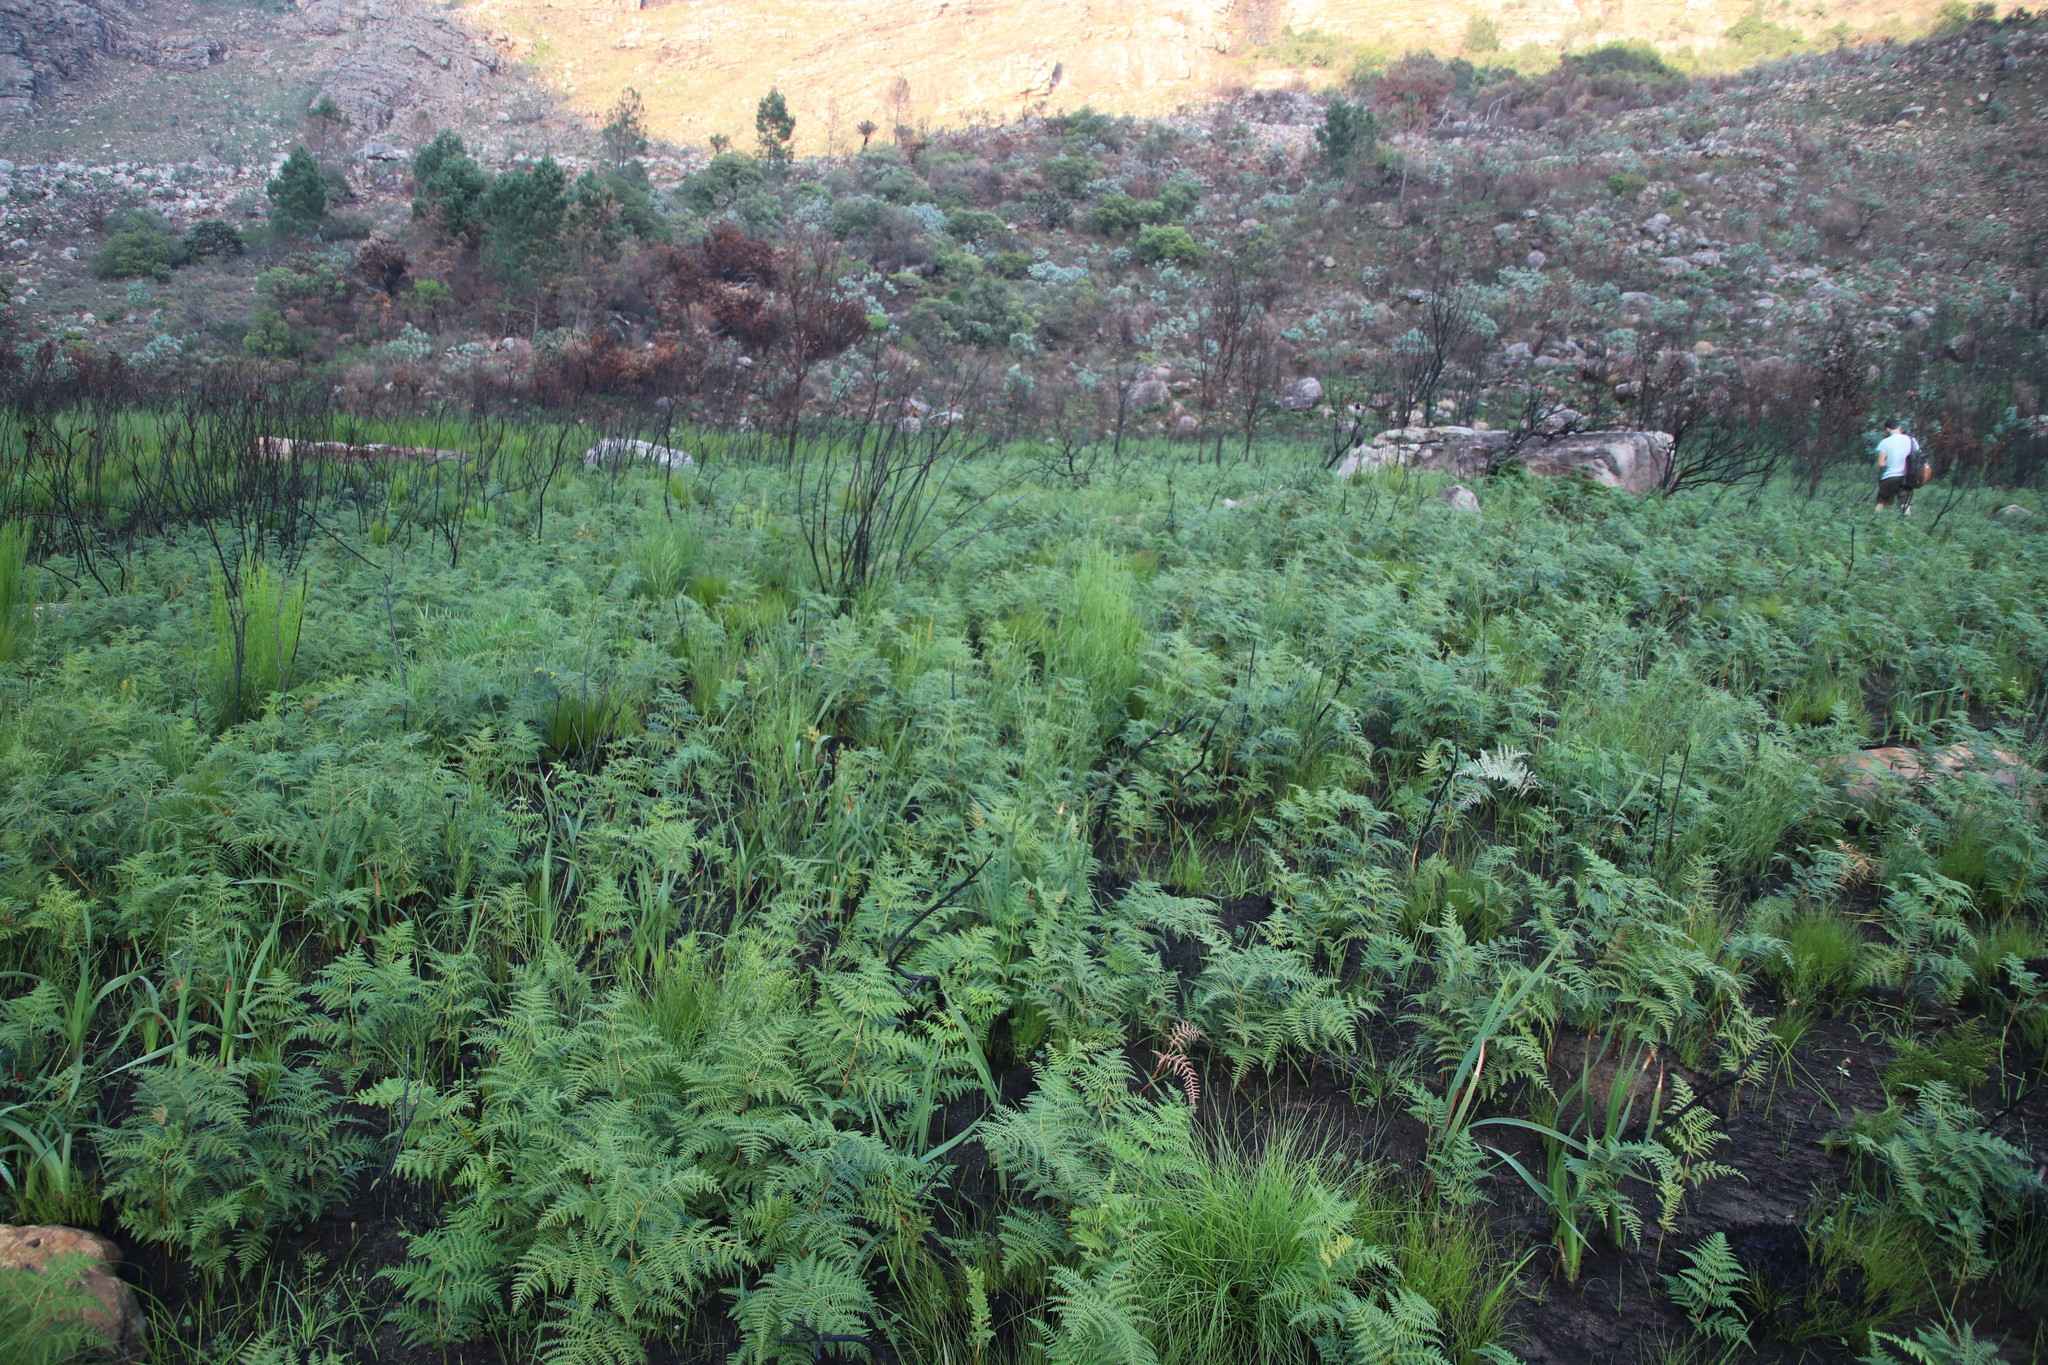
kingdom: Plantae
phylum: Tracheophyta
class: Polypodiopsida
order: Polypodiales
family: Dennstaedtiaceae
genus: Pteridium
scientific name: Pteridium aquilinum
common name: Bracken
